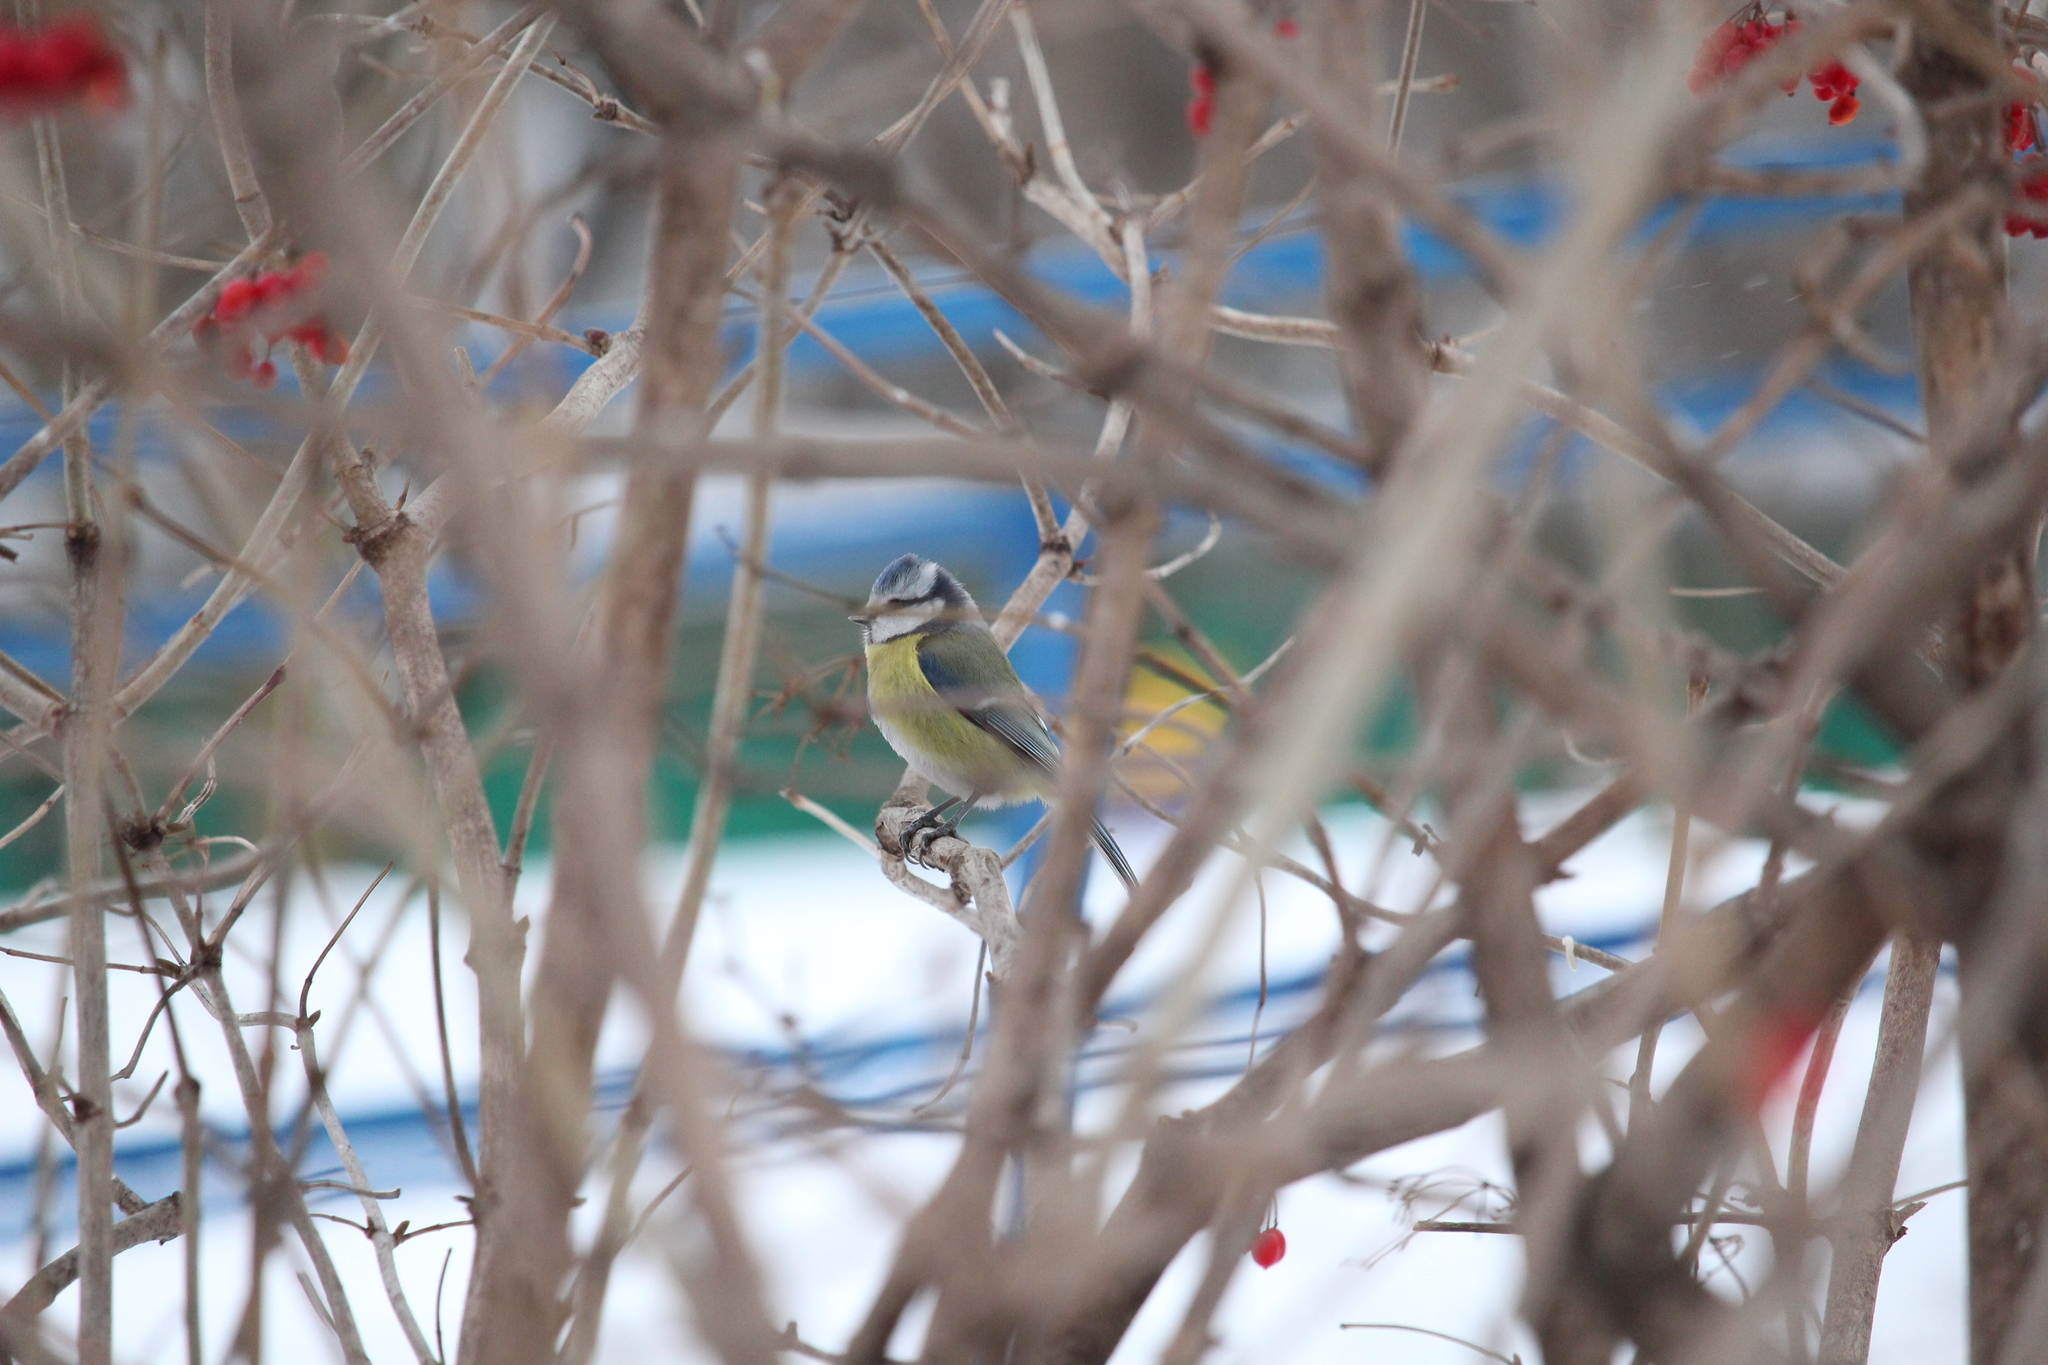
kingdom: Animalia
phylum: Chordata
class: Aves
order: Passeriformes
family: Paridae
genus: Cyanistes
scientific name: Cyanistes caeruleus
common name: Eurasian blue tit
